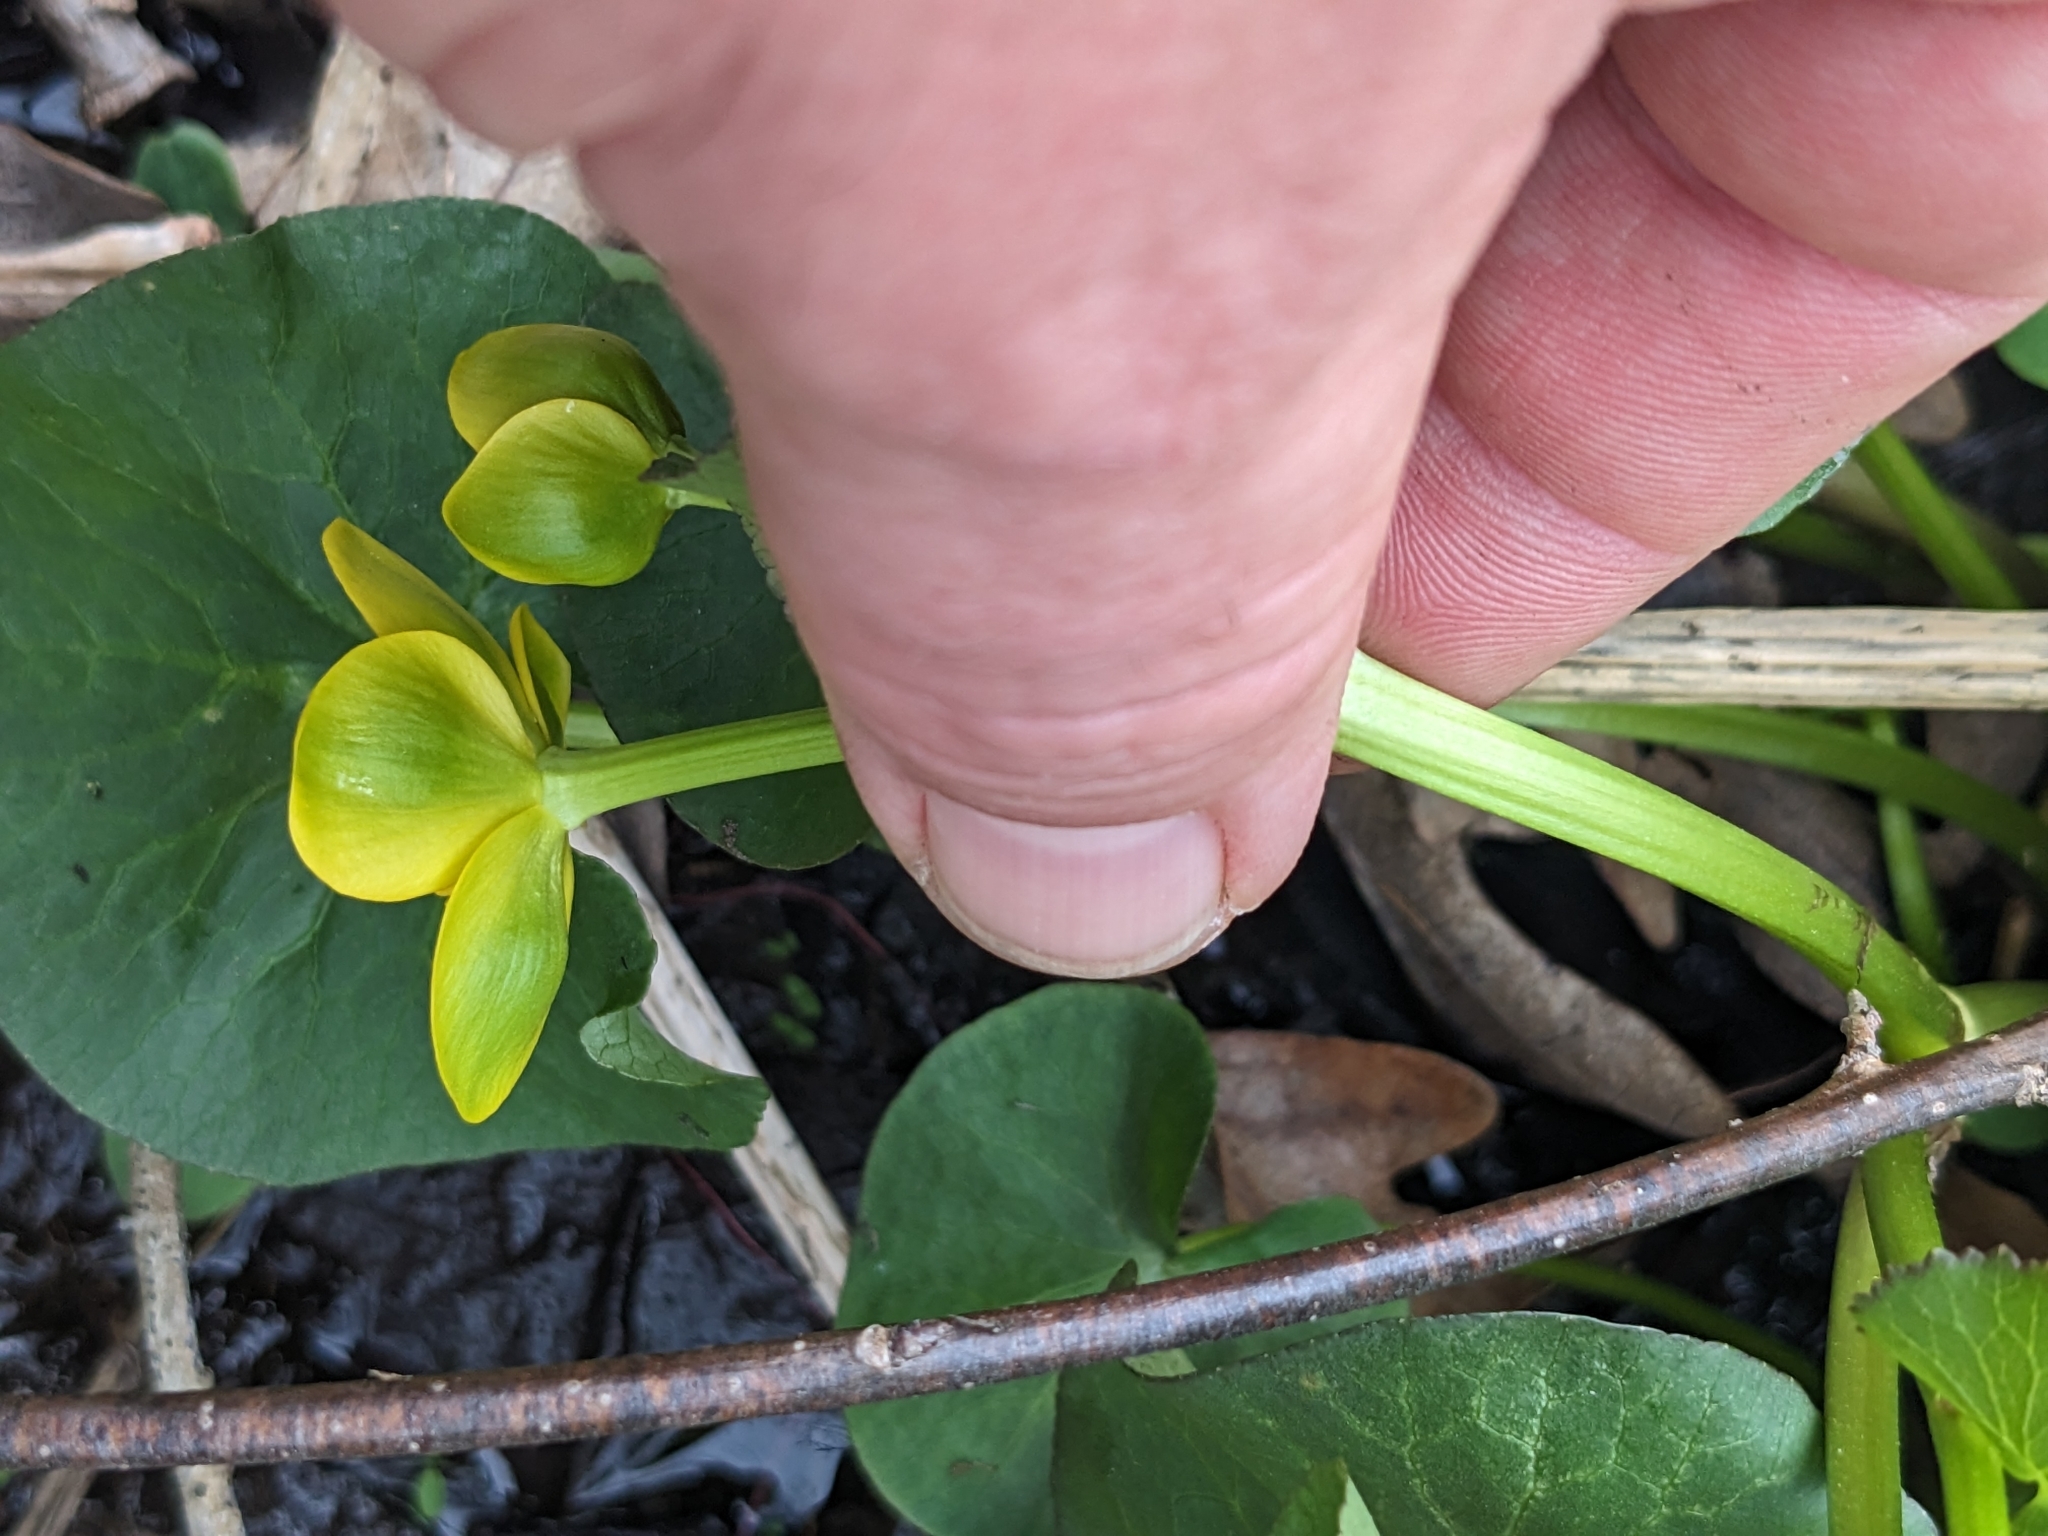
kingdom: Plantae
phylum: Tracheophyta
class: Magnoliopsida
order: Ranunculales
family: Ranunculaceae
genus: Caltha
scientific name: Caltha palustris
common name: Marsh marigold
